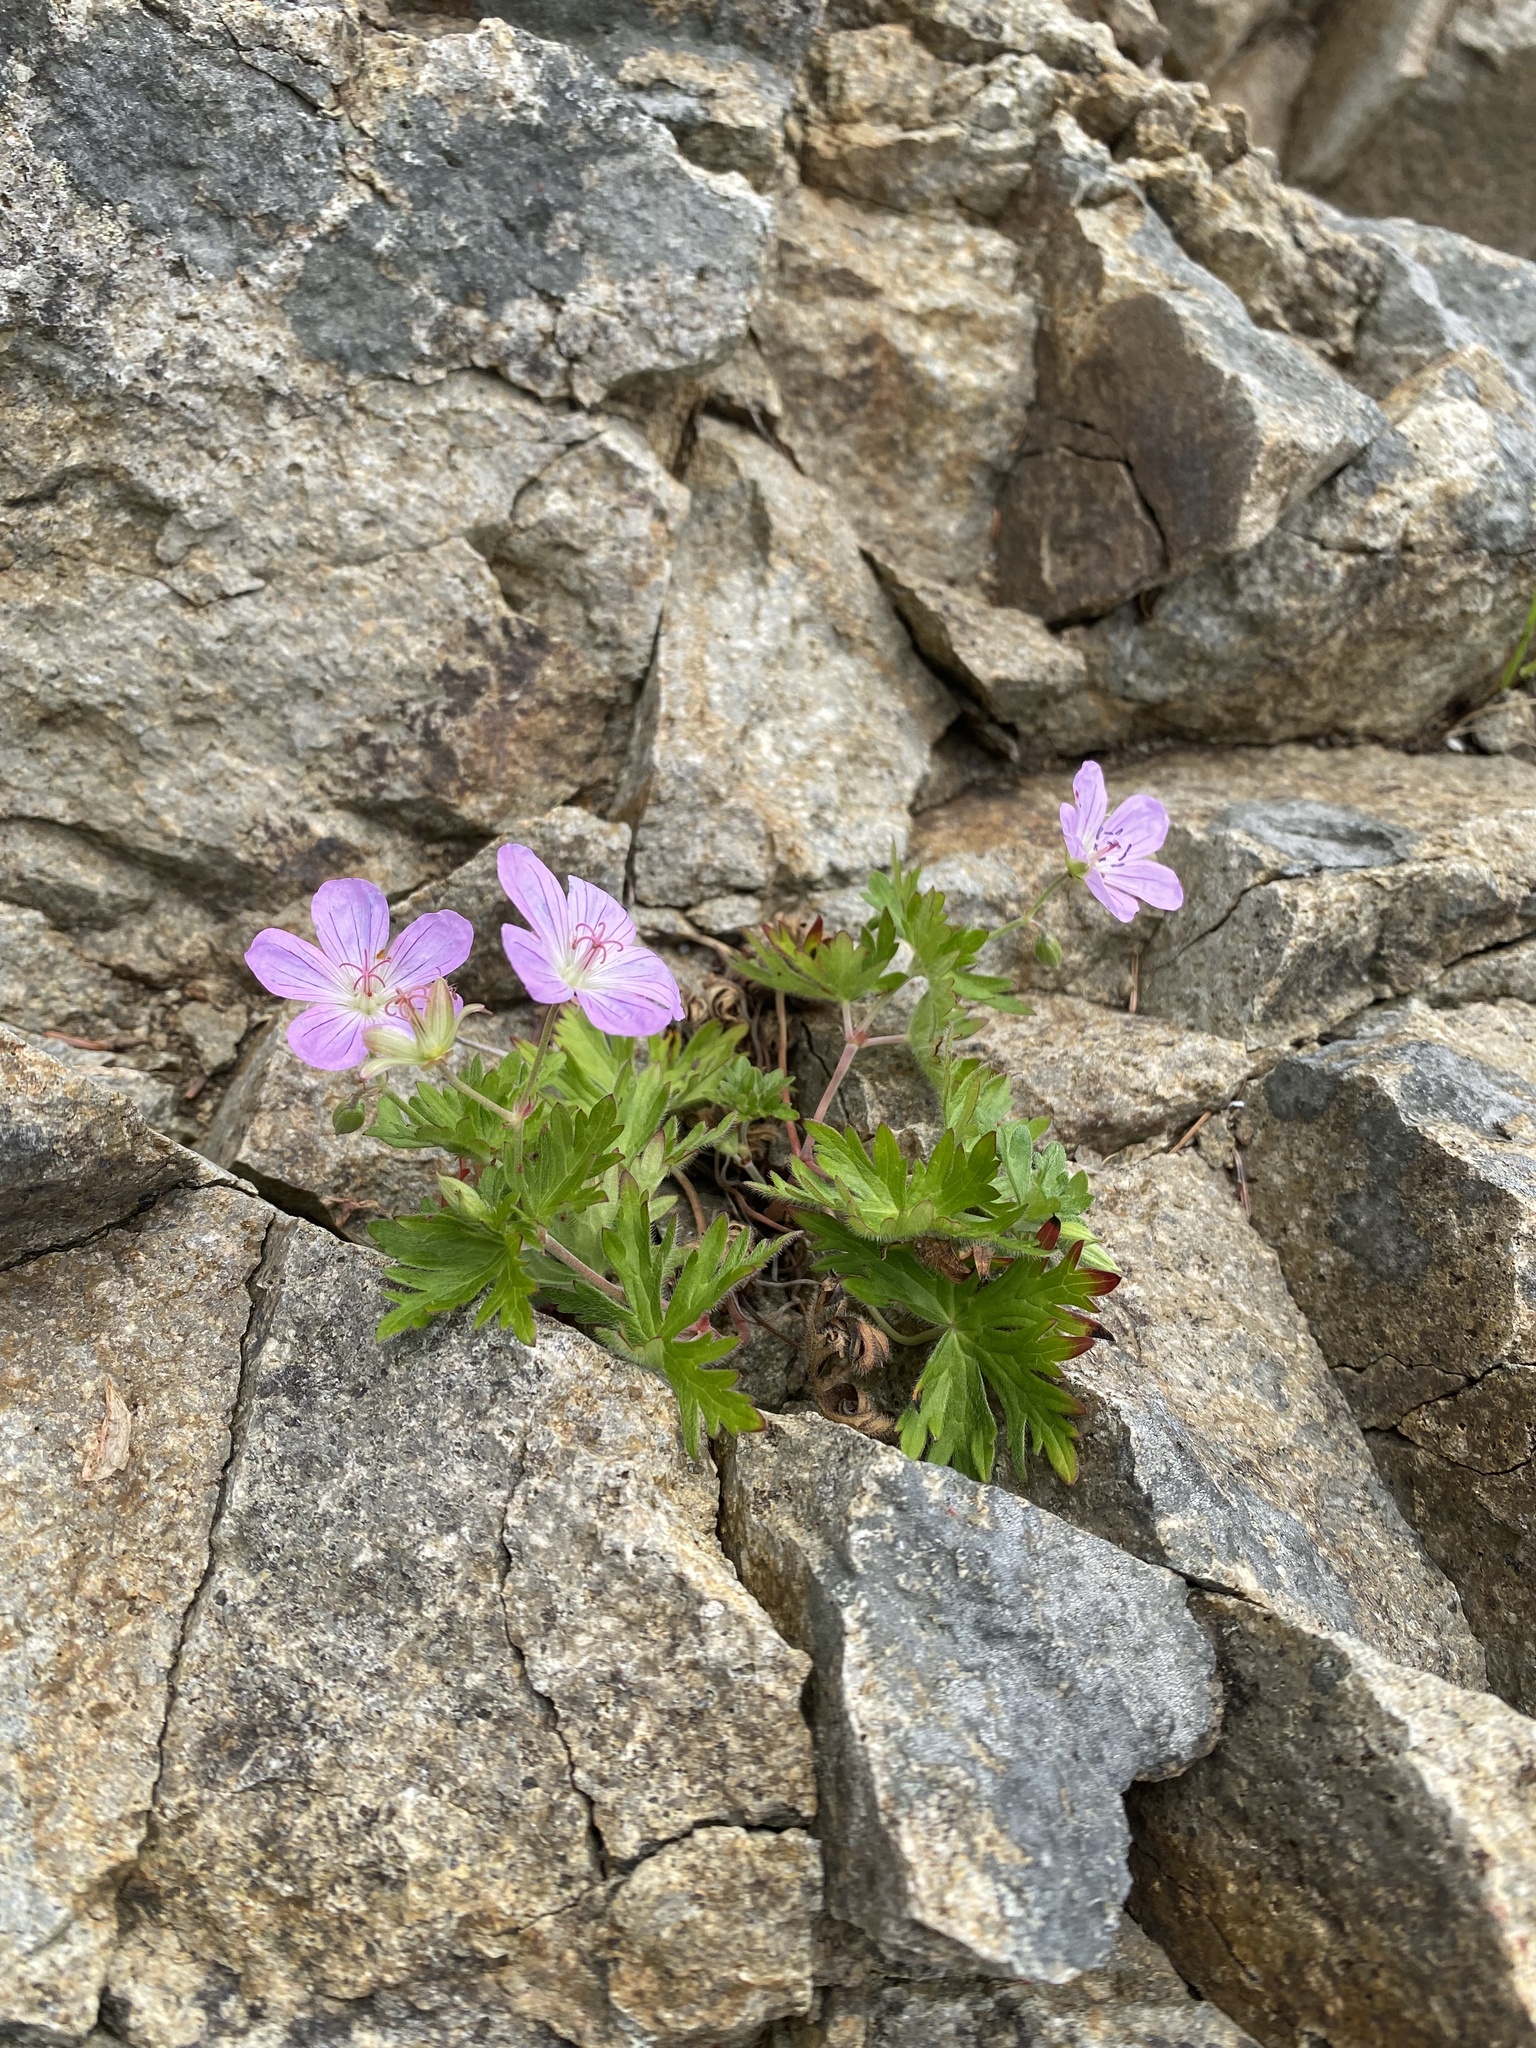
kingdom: Plantae
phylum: Tracheophyta
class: Magnoliopsida
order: Geraniales
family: Geraniaceae
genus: Geranium
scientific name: Geranium yesoense
